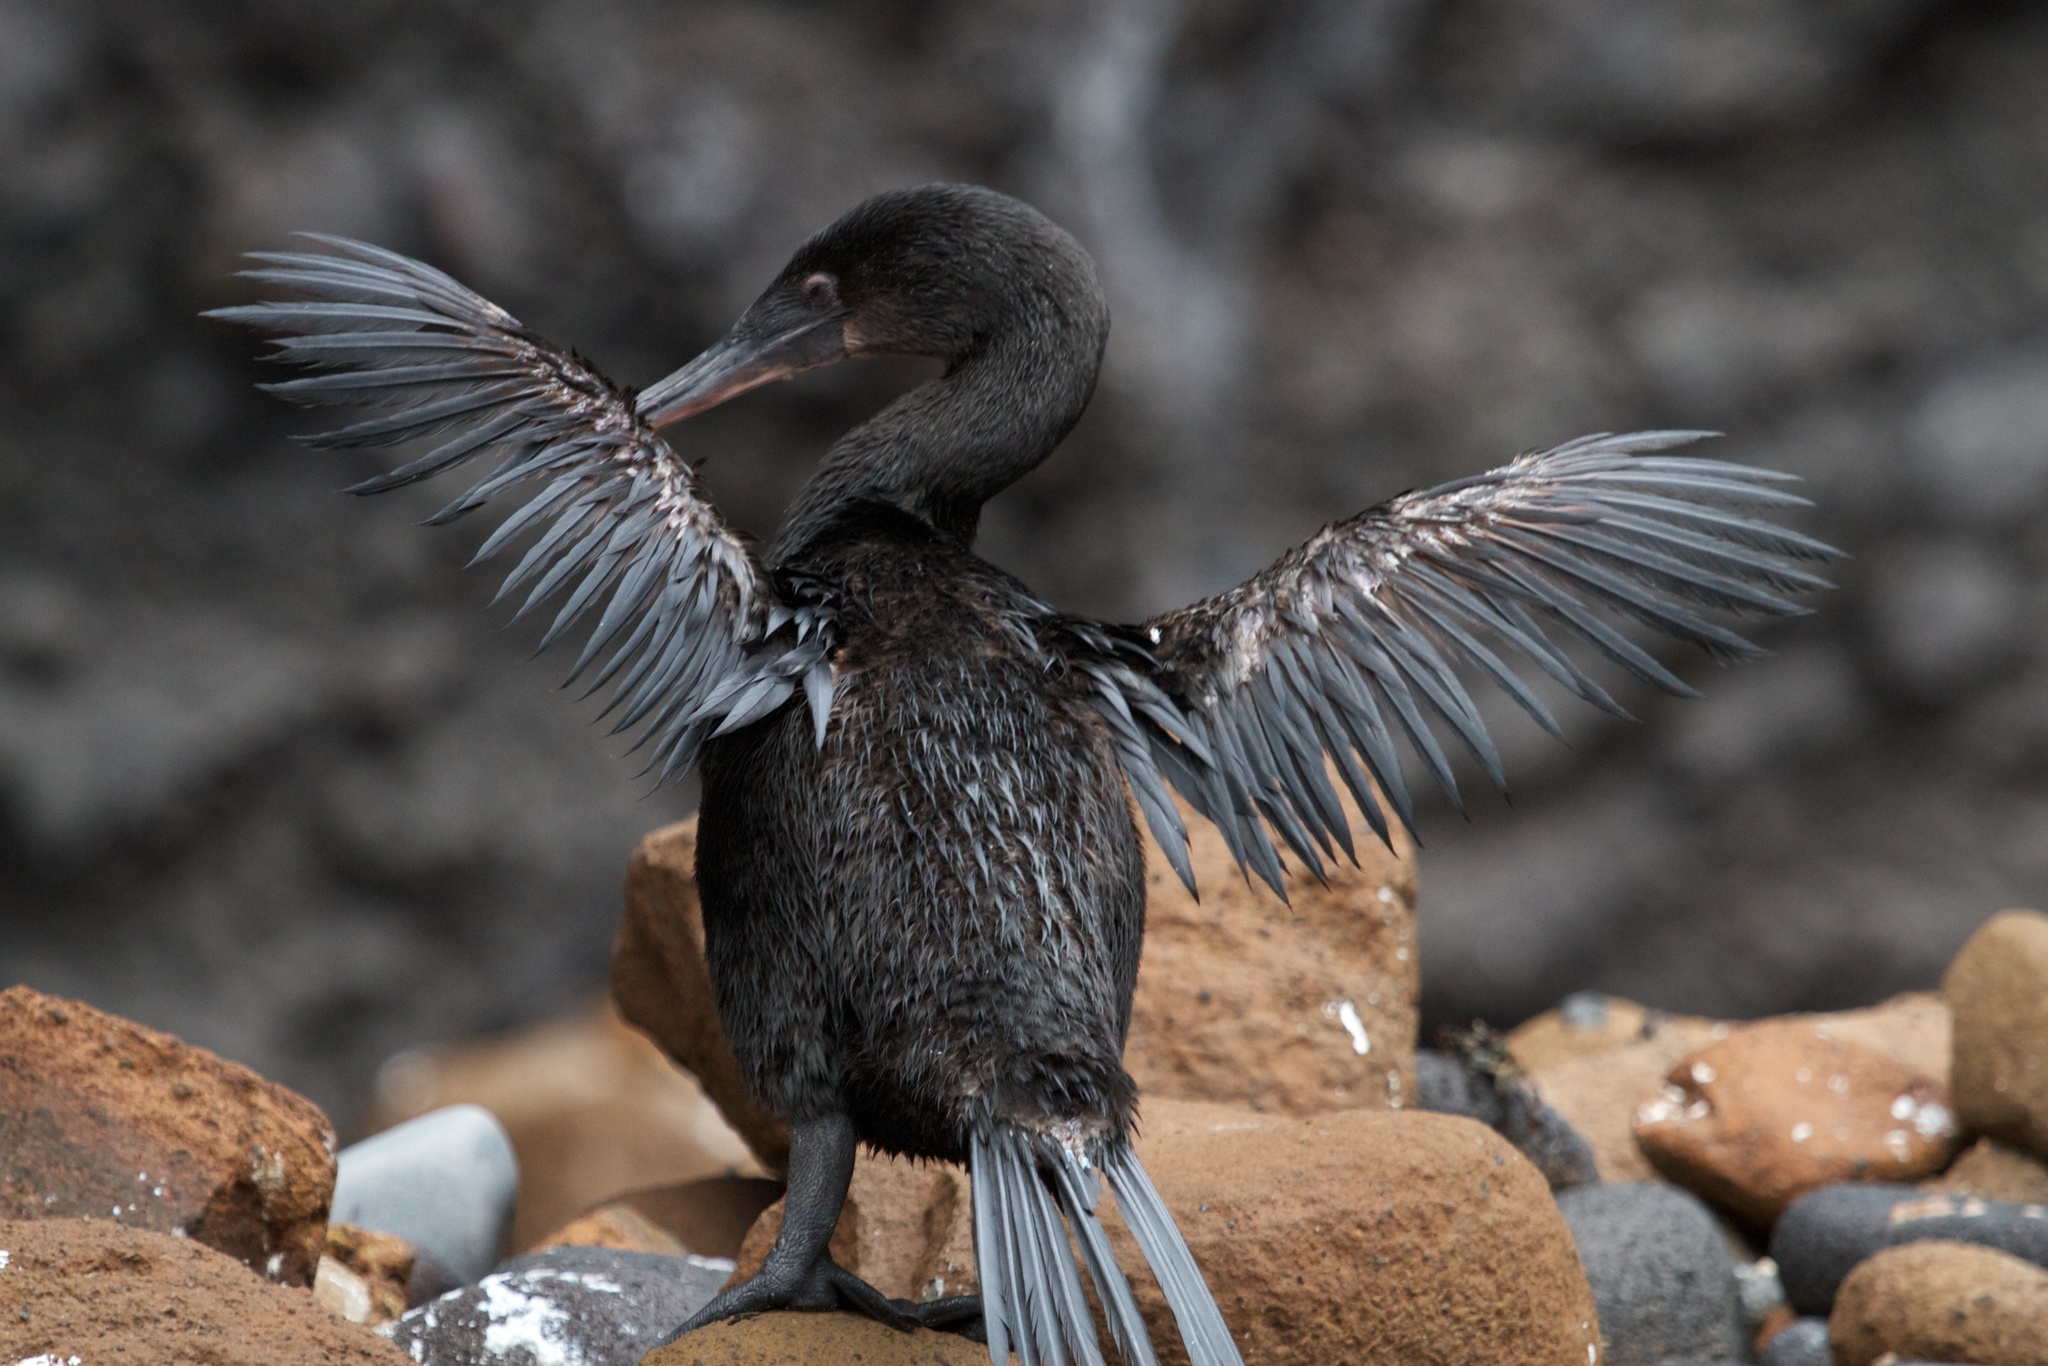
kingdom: Animalia
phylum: Chordata
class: Aves
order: Suliformes
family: Phalacrocoracidae
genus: Phalacrocorax
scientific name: Phalacrocorax harrisi
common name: Flightless cormorant
